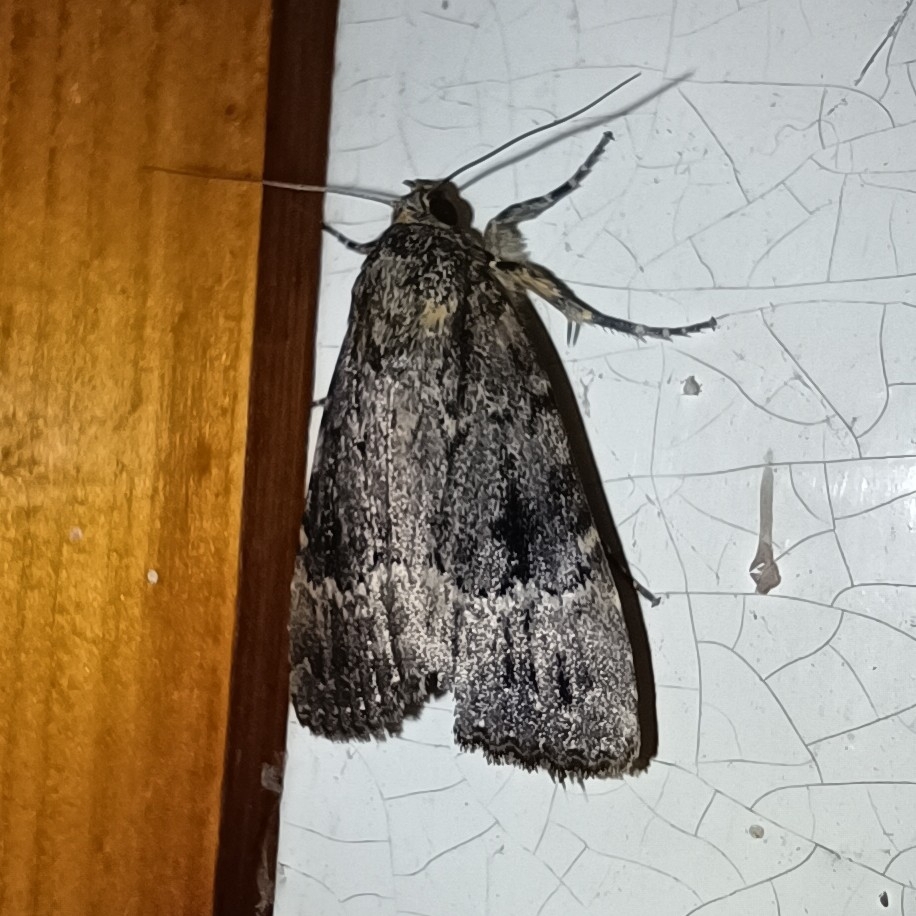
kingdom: Animalia
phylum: Arthropoda
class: Insecta
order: Lepidoptera
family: Noctuidae
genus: Amphipyra
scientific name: Amphipyra pyramidea
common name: Copper underwing
